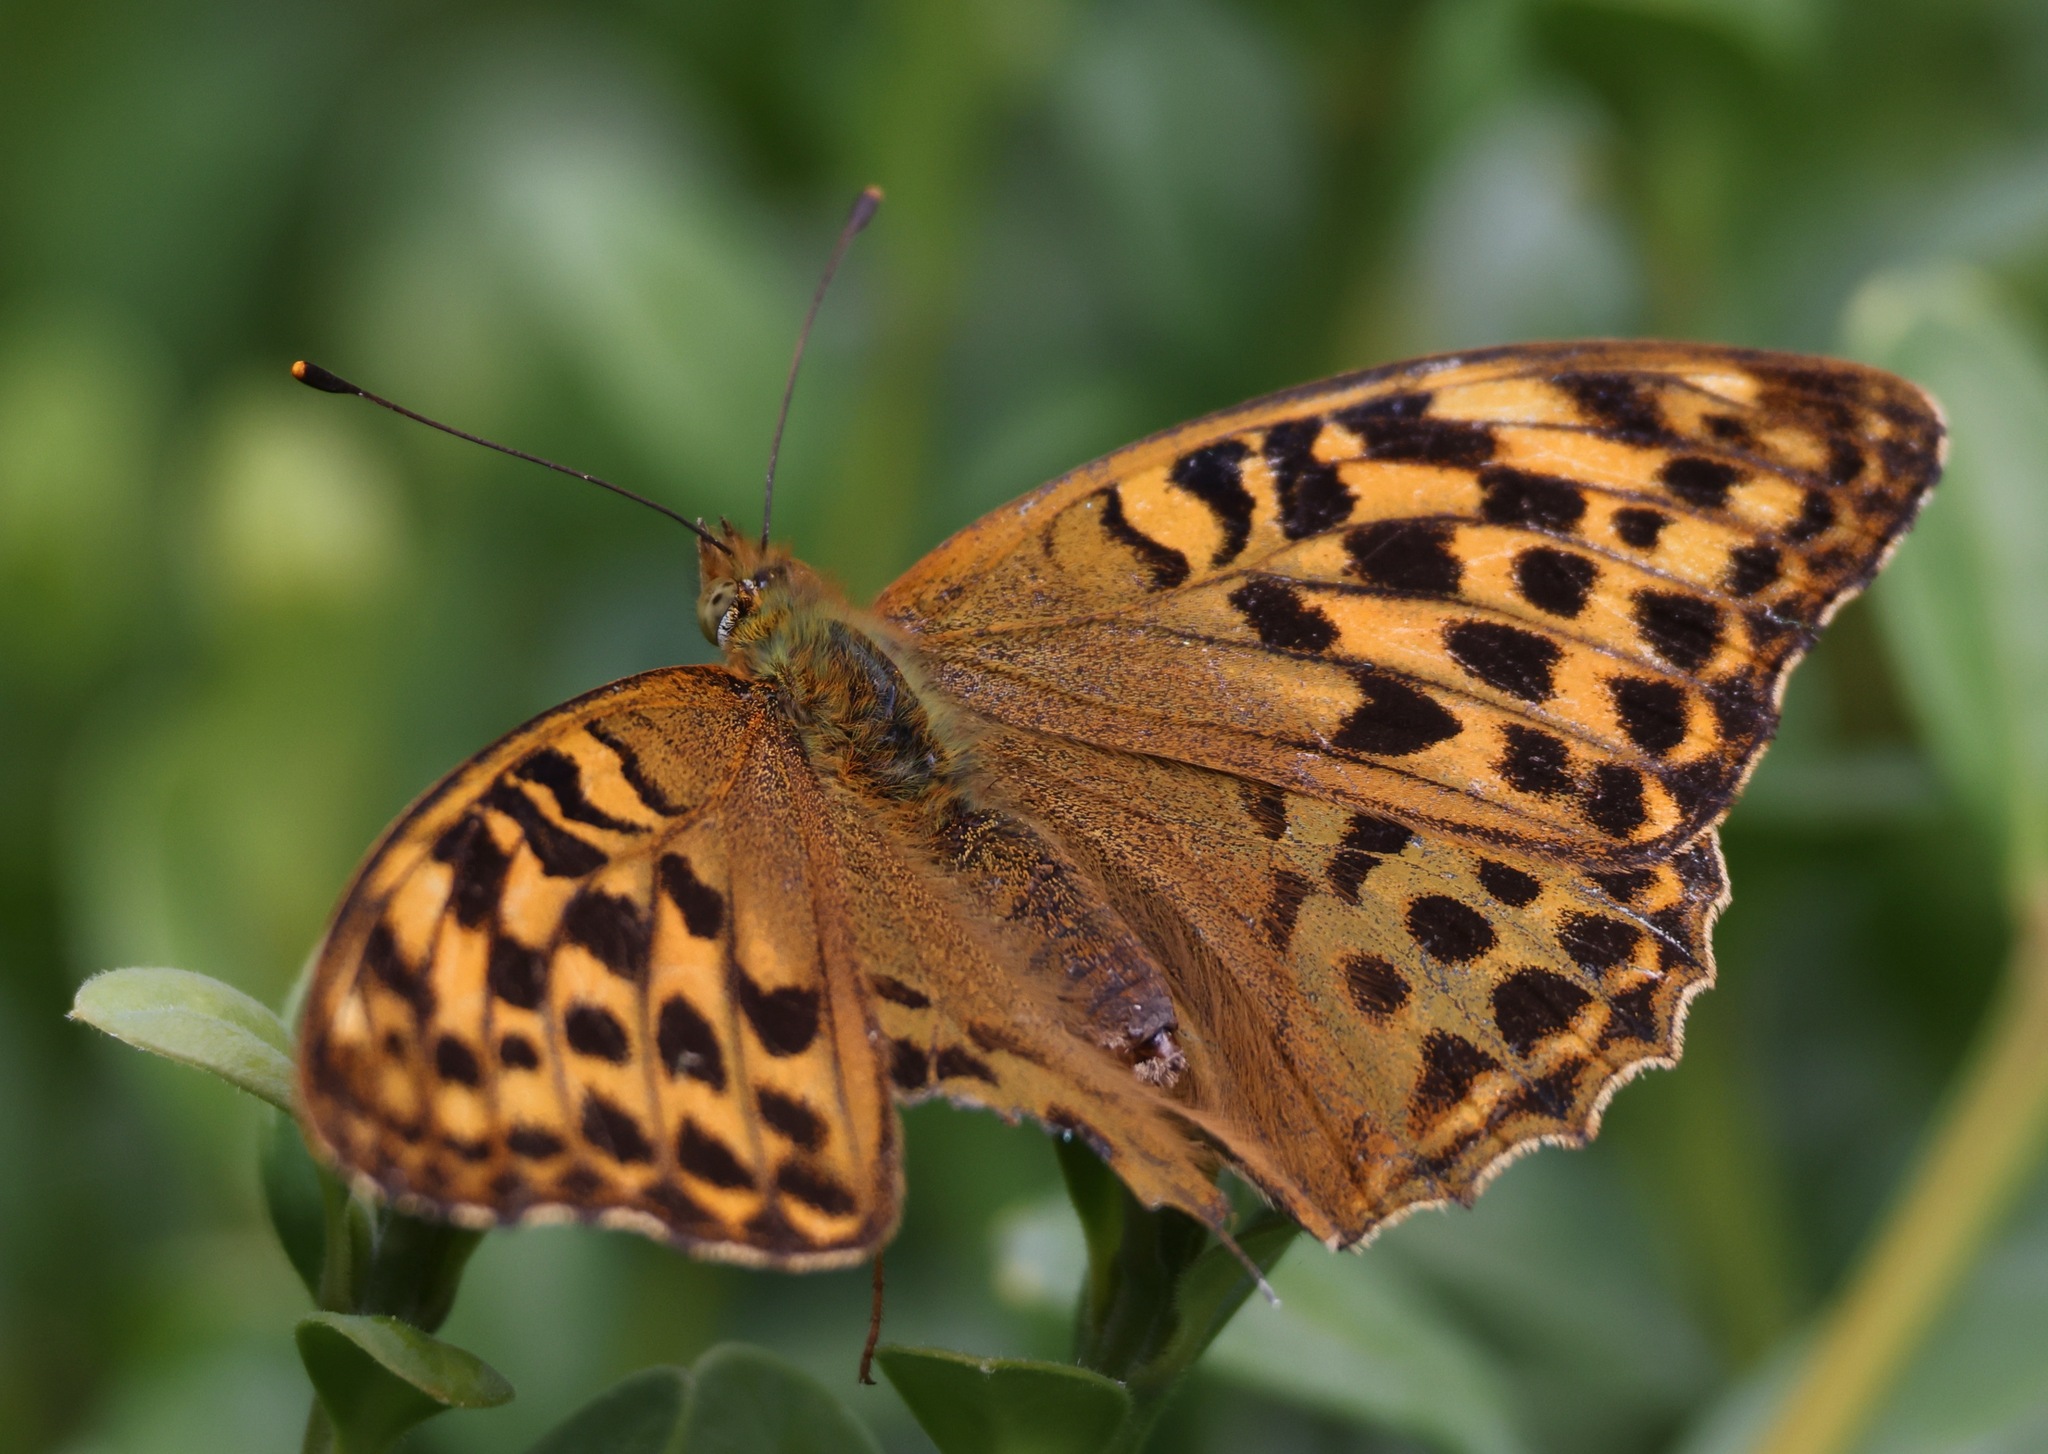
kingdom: Animalia
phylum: Arthropoda
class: Insecta
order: Lepidoptera
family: Nymphalidae
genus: Argynnis
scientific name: Argynnis paphia
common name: Silver-washed fritillary
